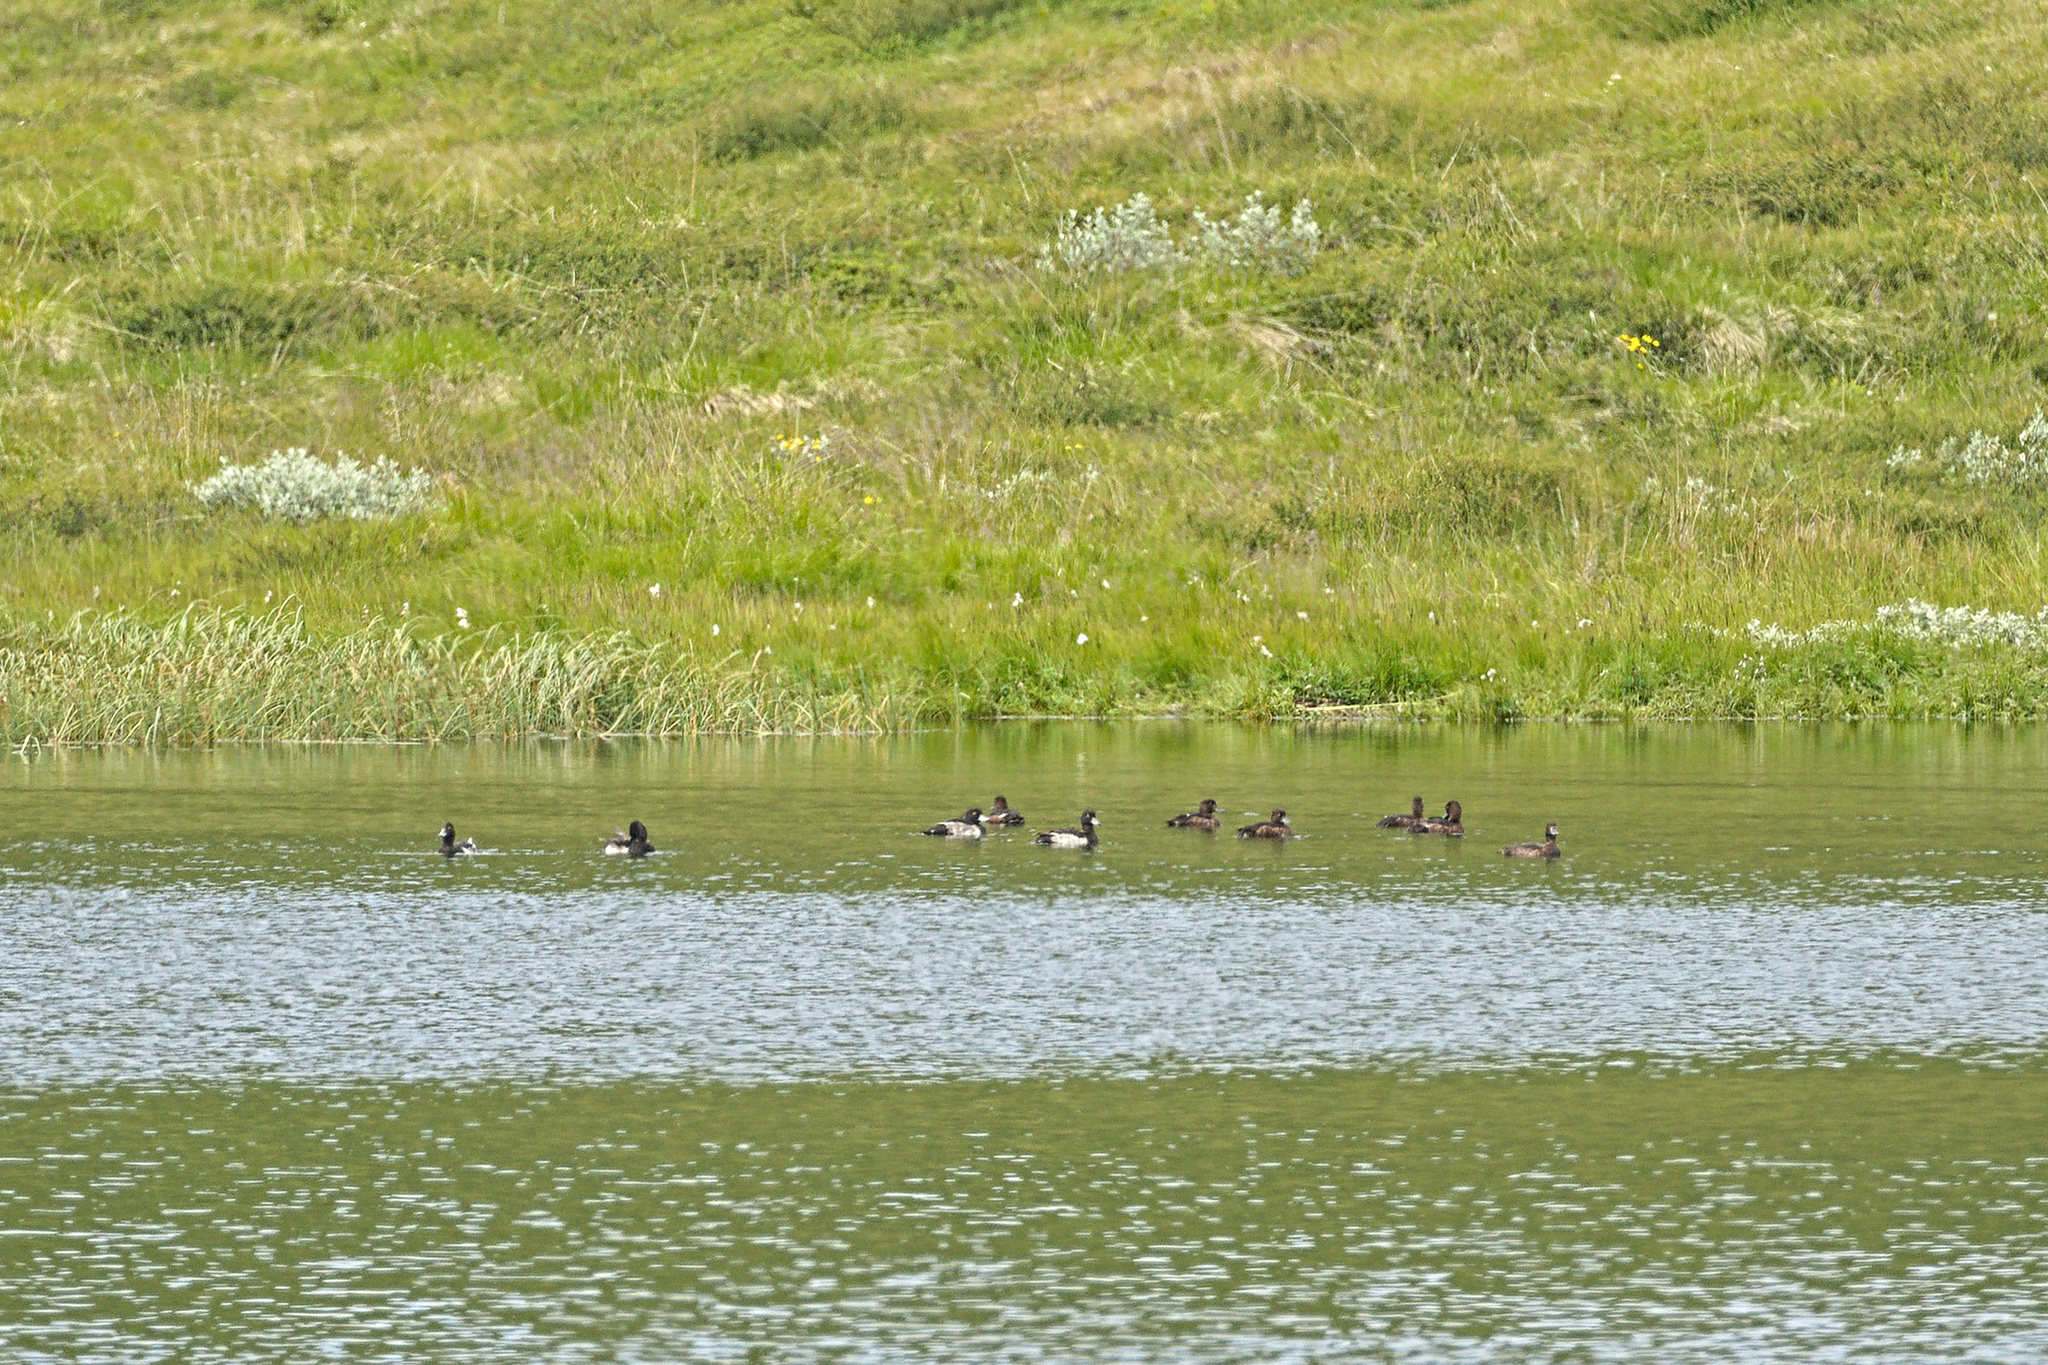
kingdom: Animalia
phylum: Chordata
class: Aves
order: Anseriformes
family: Anatidae
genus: Aythya
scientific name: Aythya fuligula
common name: Tufted duck
